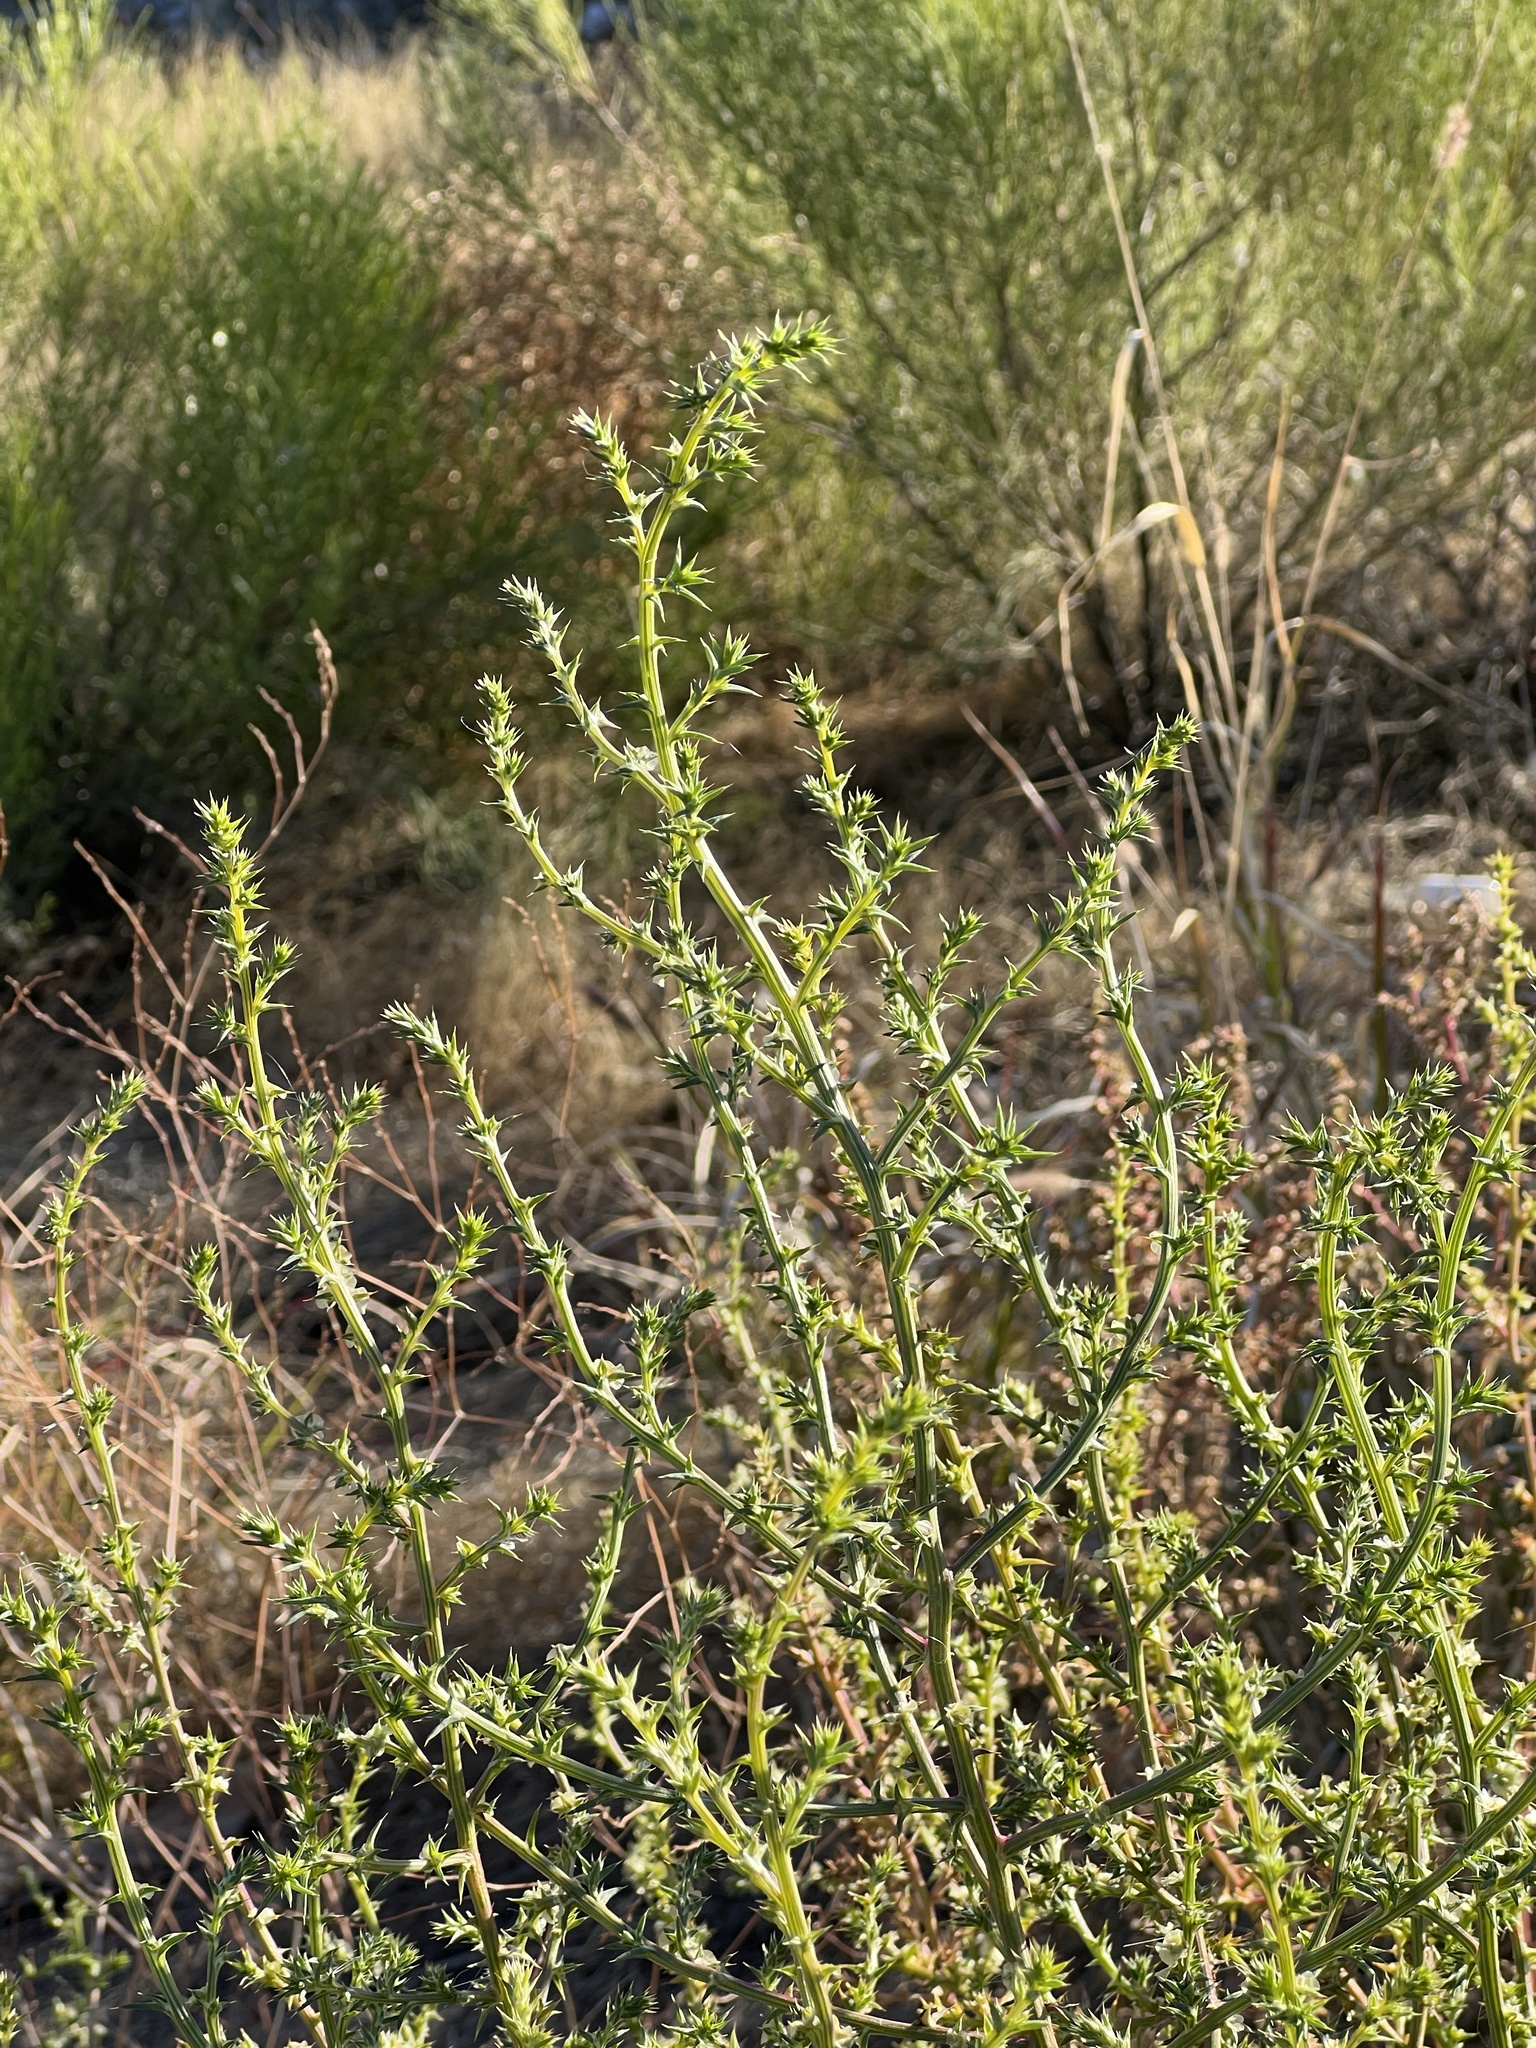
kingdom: Plantae
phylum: Tracheophyta
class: Magnoliopsida
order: Caryophyllales
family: Amaranthaceae
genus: Salsola
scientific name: Salsola tragus
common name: Prickly russian thistle
